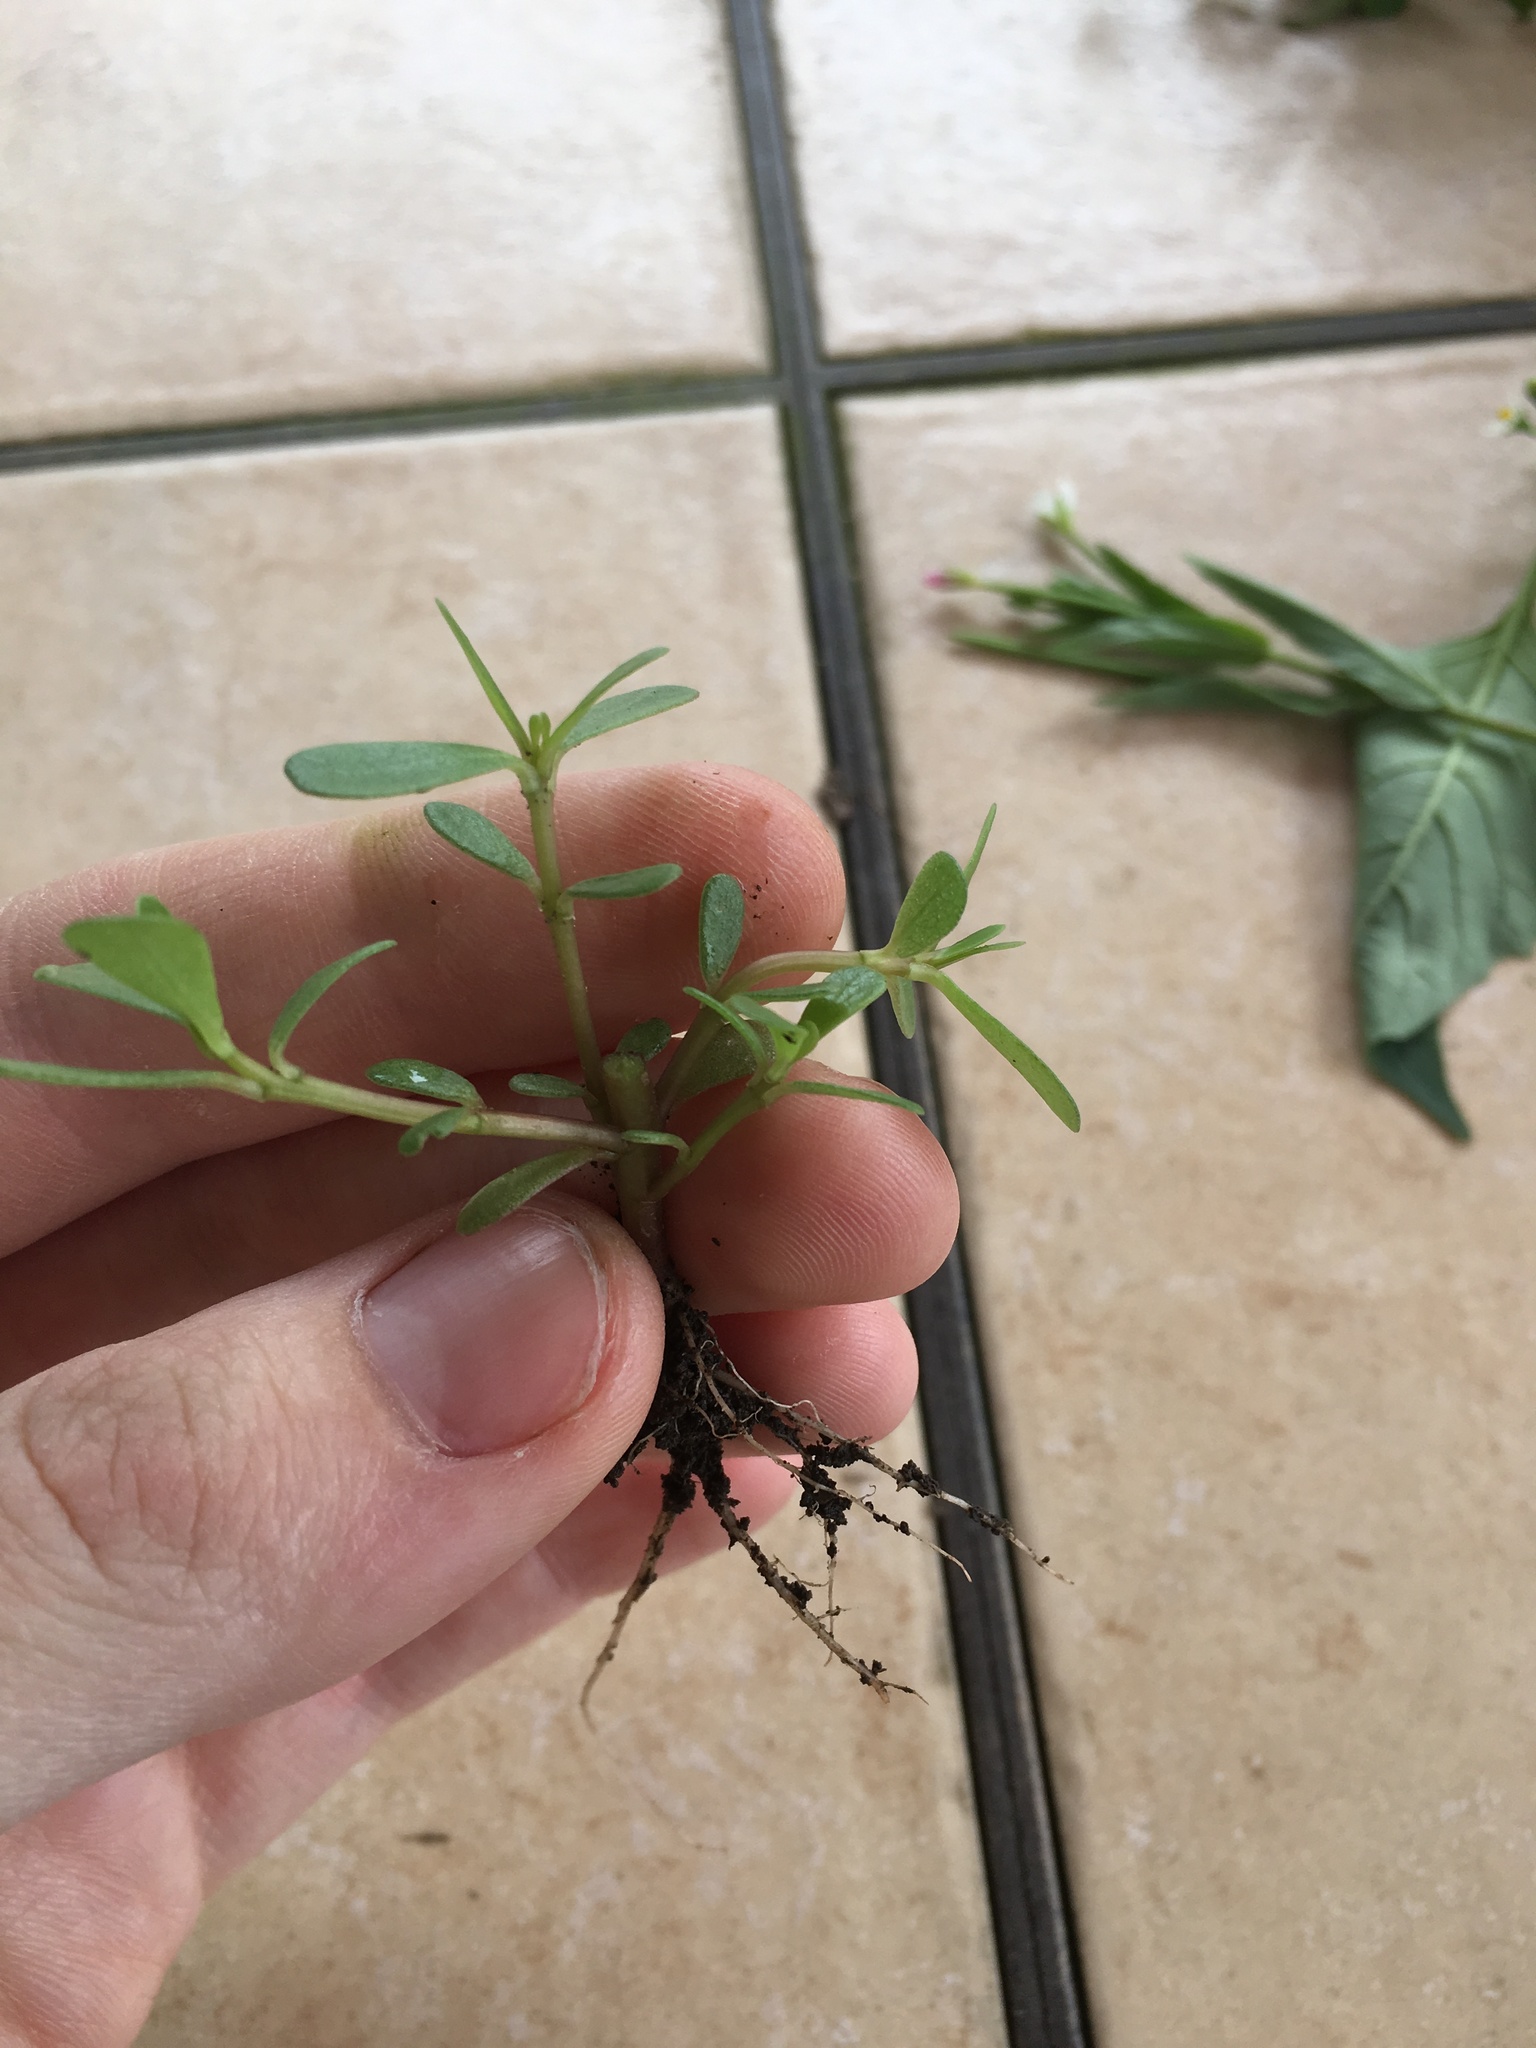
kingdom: Plantae
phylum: Tracheophyta
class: Magnoliopsida
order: Caryophyllales
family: Portulacaceae
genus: Portulaca
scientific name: Portulaca oleracea
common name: Common purslane
